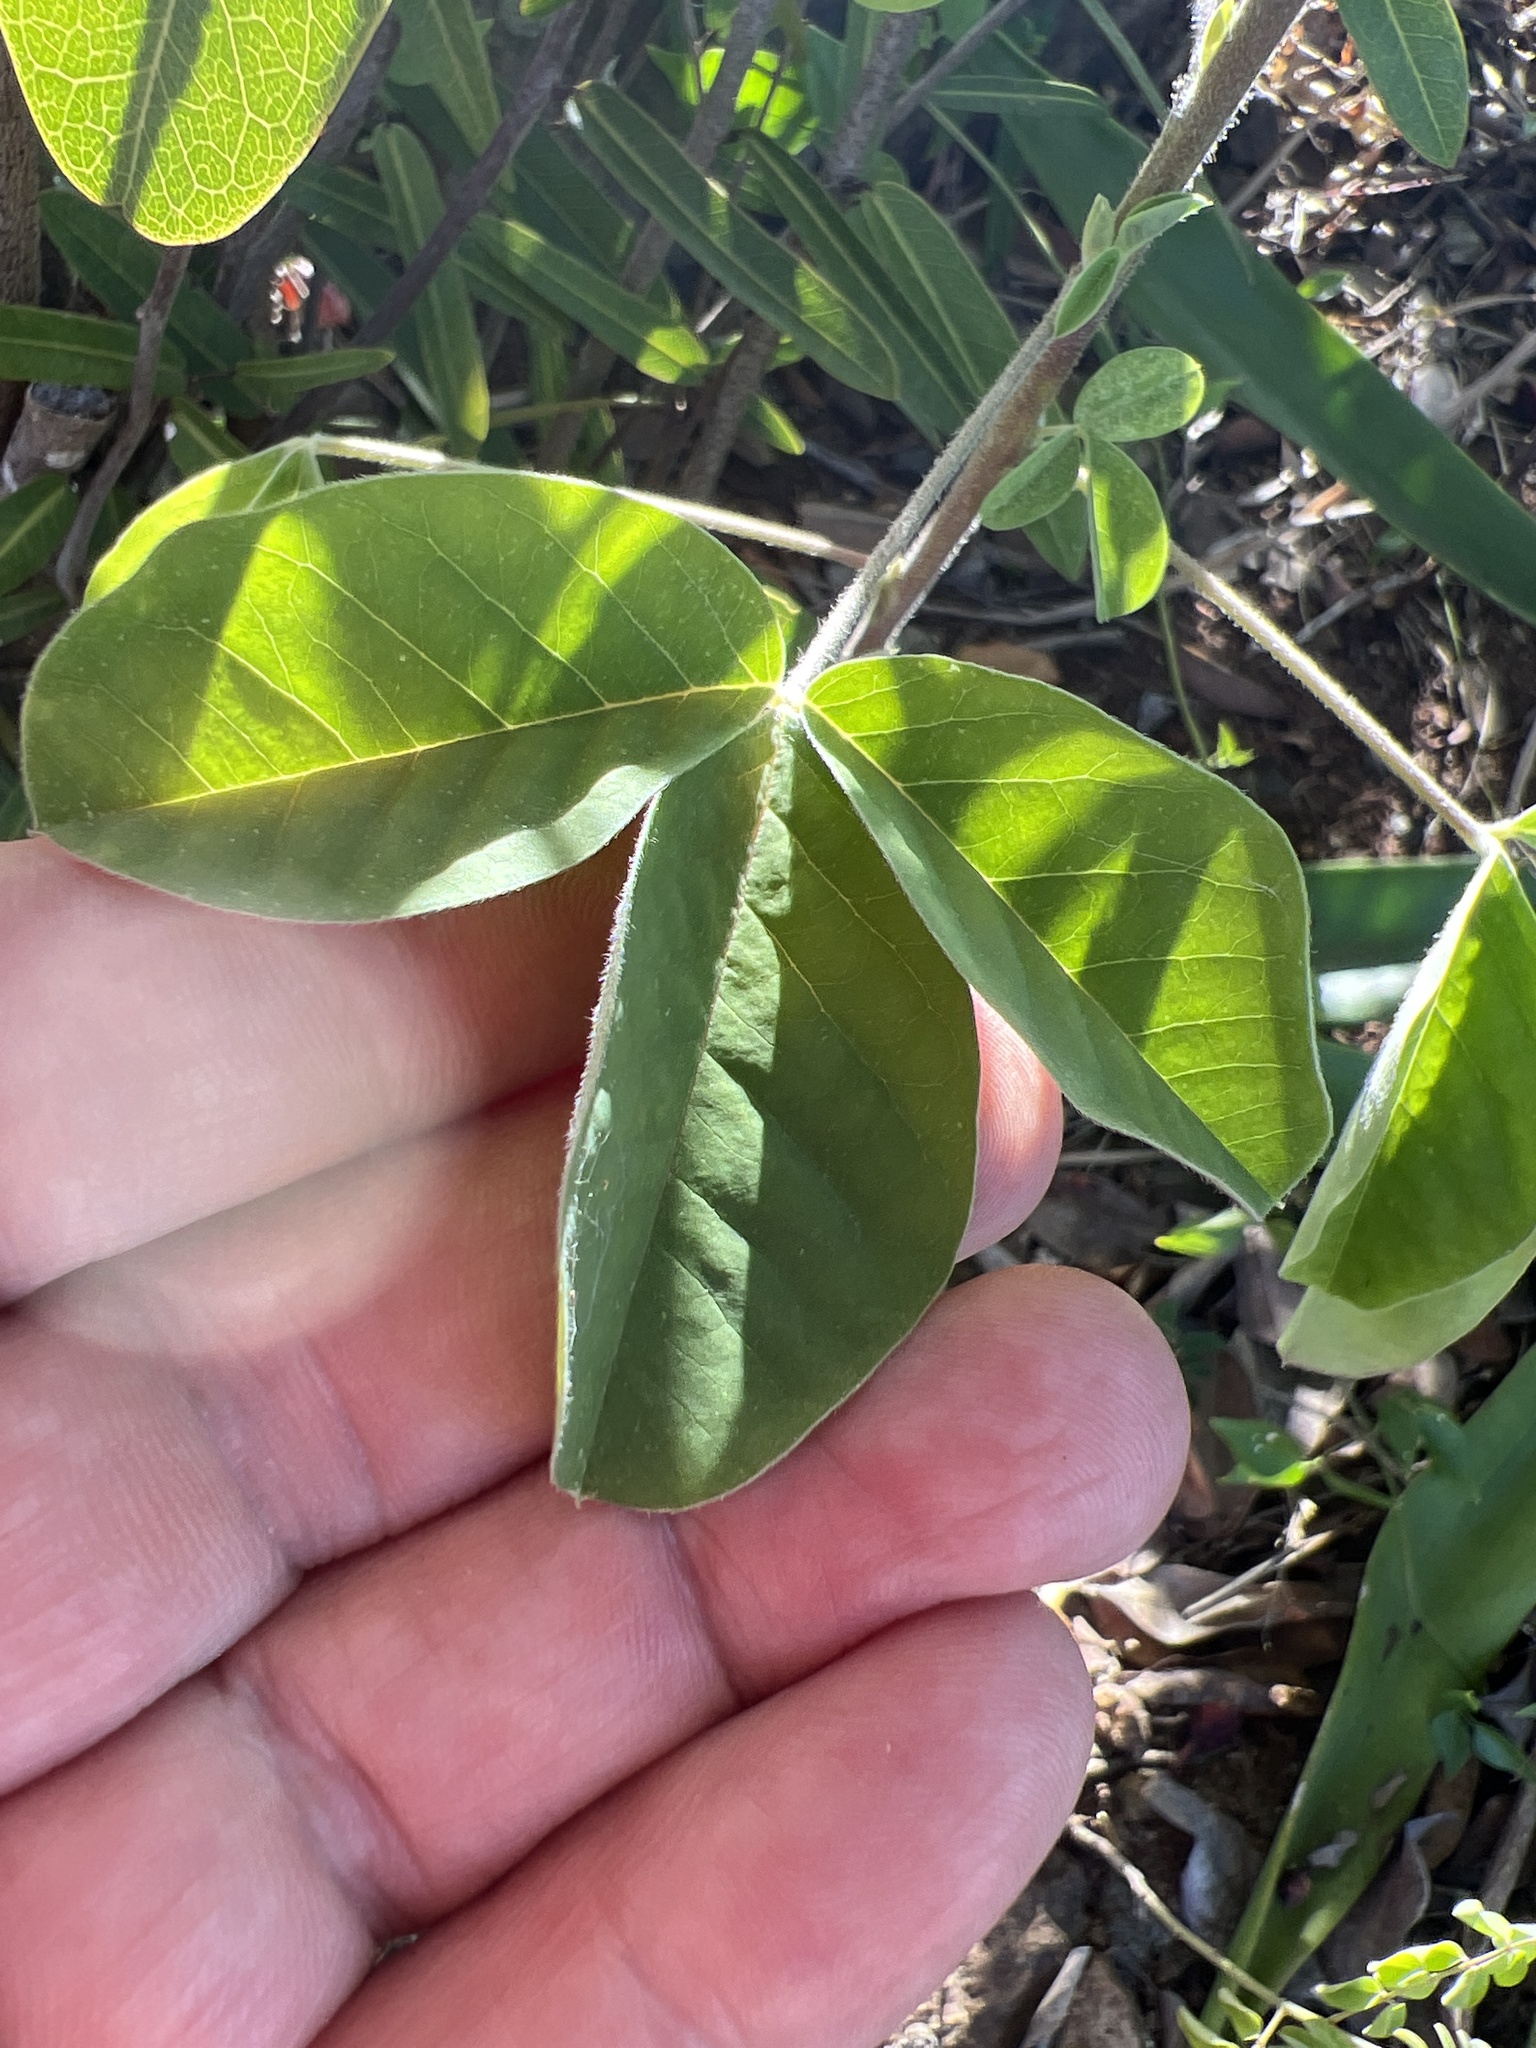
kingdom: Plantae
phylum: Tracheophyta
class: Magnoliopsida
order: Fabales
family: Fabaceae
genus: Crotalaria
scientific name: Crotalaria incana
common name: Shakeshake
